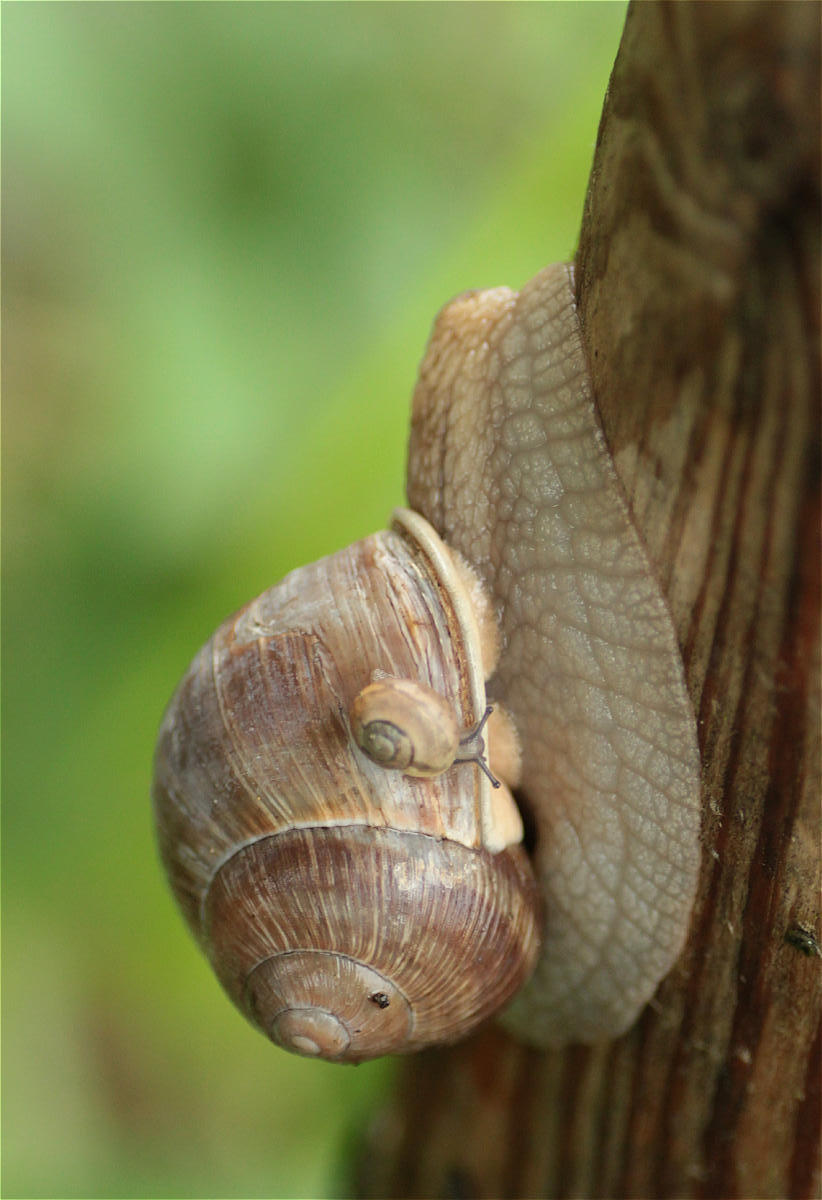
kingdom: Animalia
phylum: Mollusca
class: Gastropoda
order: Stylommatophora
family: Helicidae
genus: Helix
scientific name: Helix pomatia
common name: Roman snail
